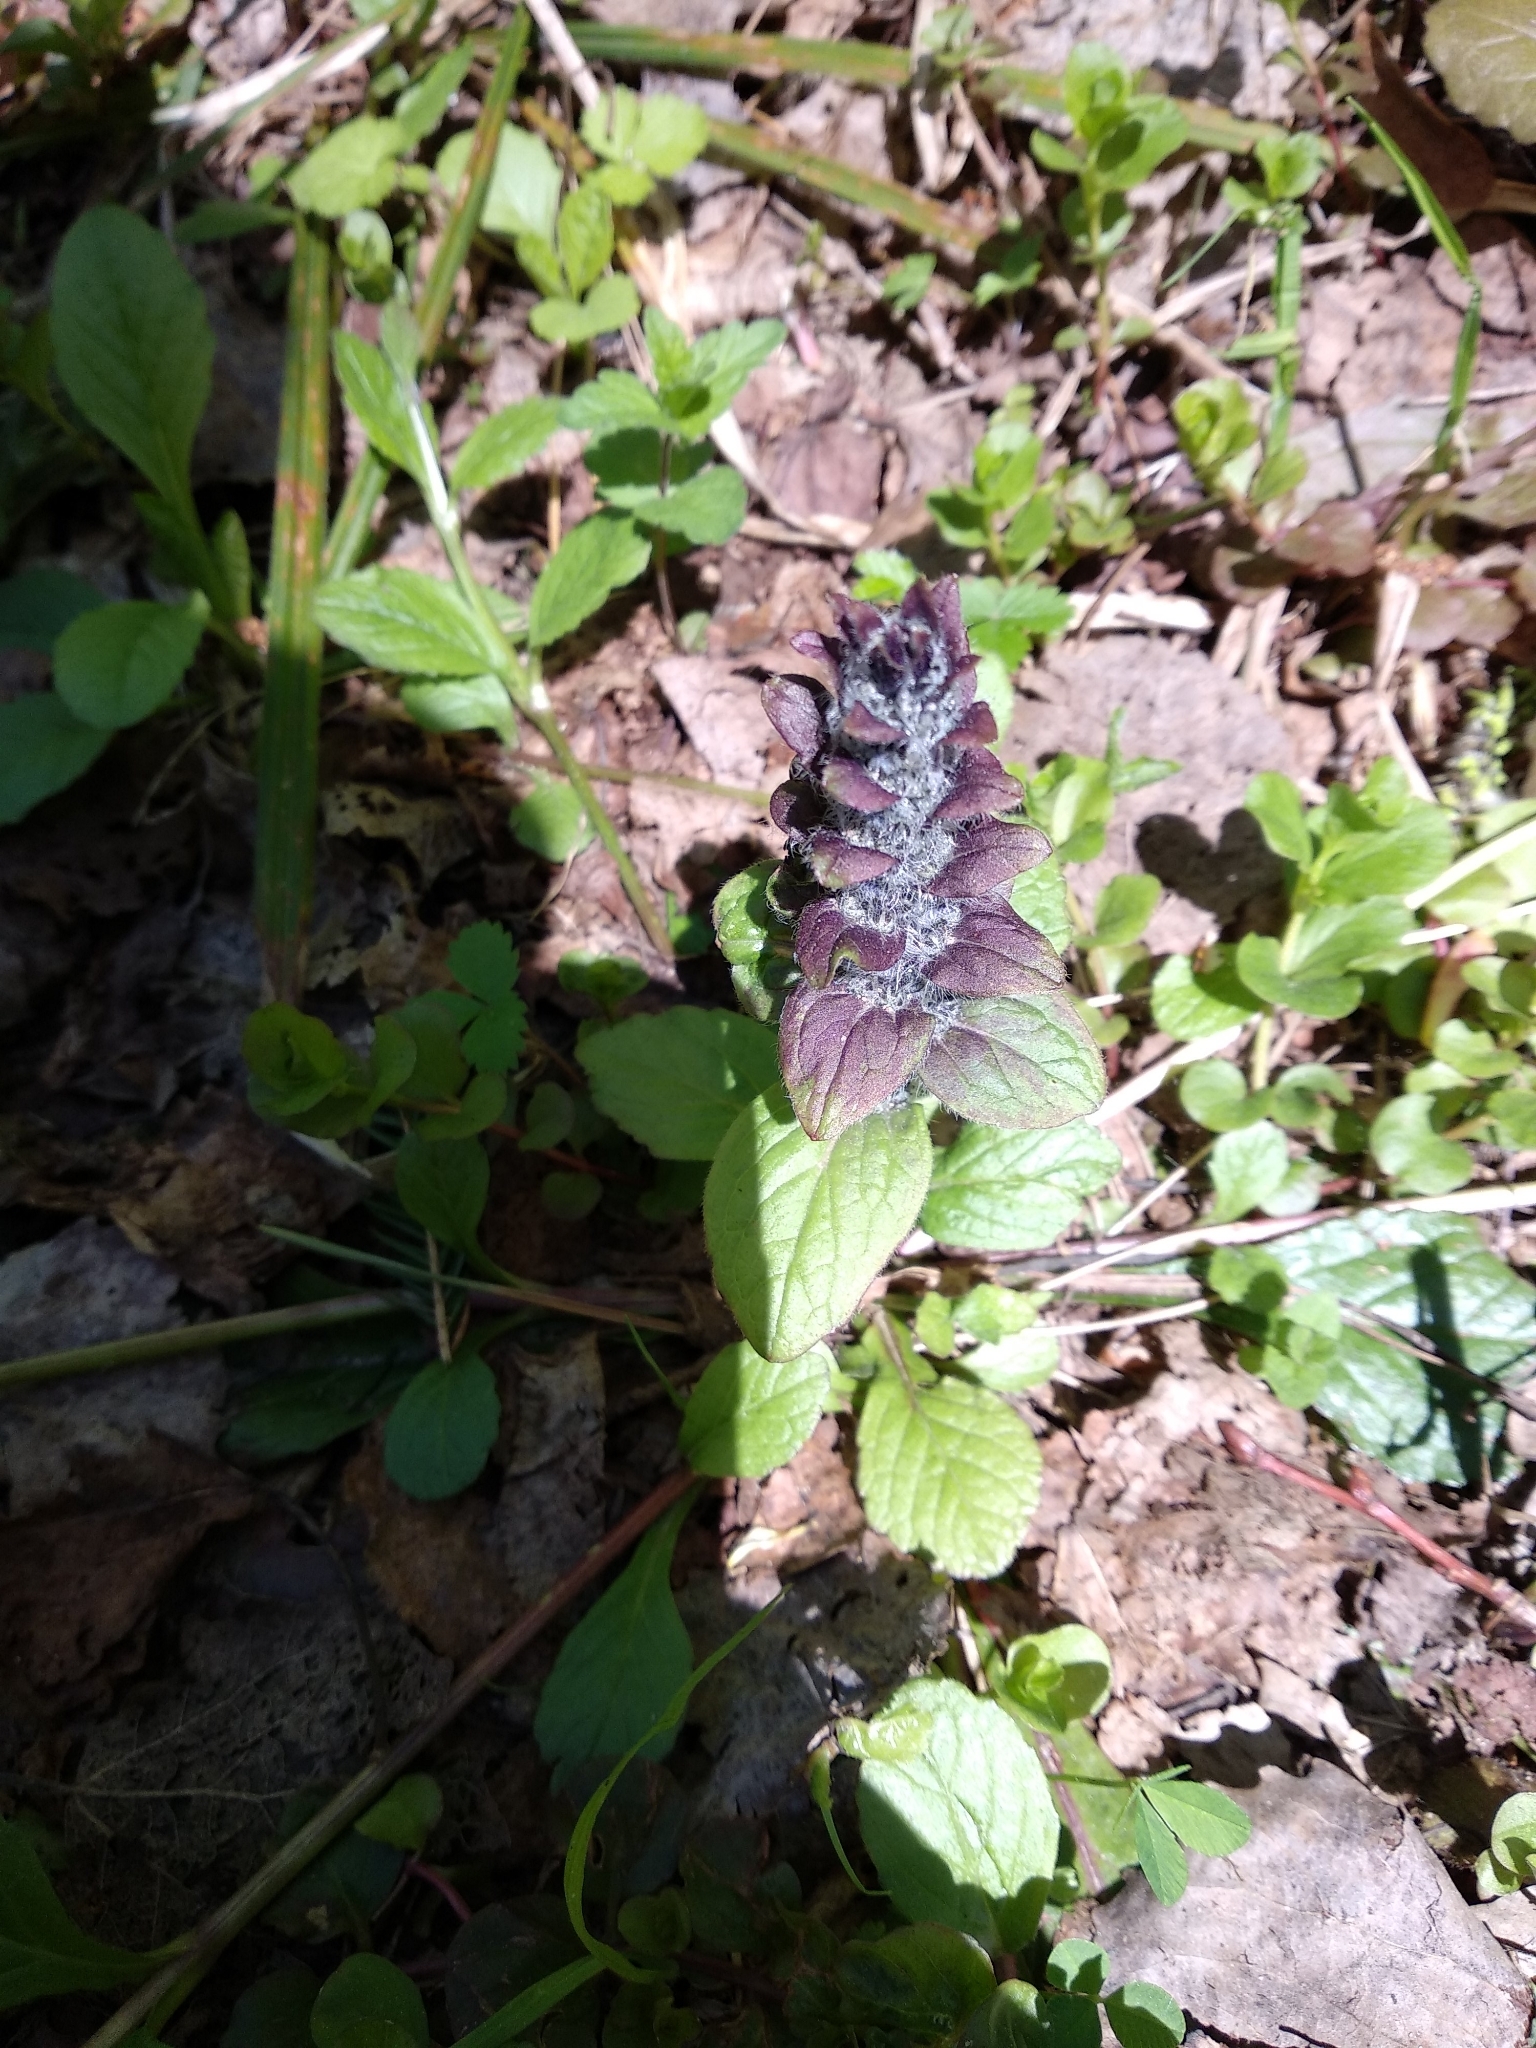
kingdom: Plantae
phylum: Tracheophyta
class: Magnoliopsida
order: Lamiales
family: Lamiaceae
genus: Ajuga
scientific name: Ajuga reptans
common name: Bugle
